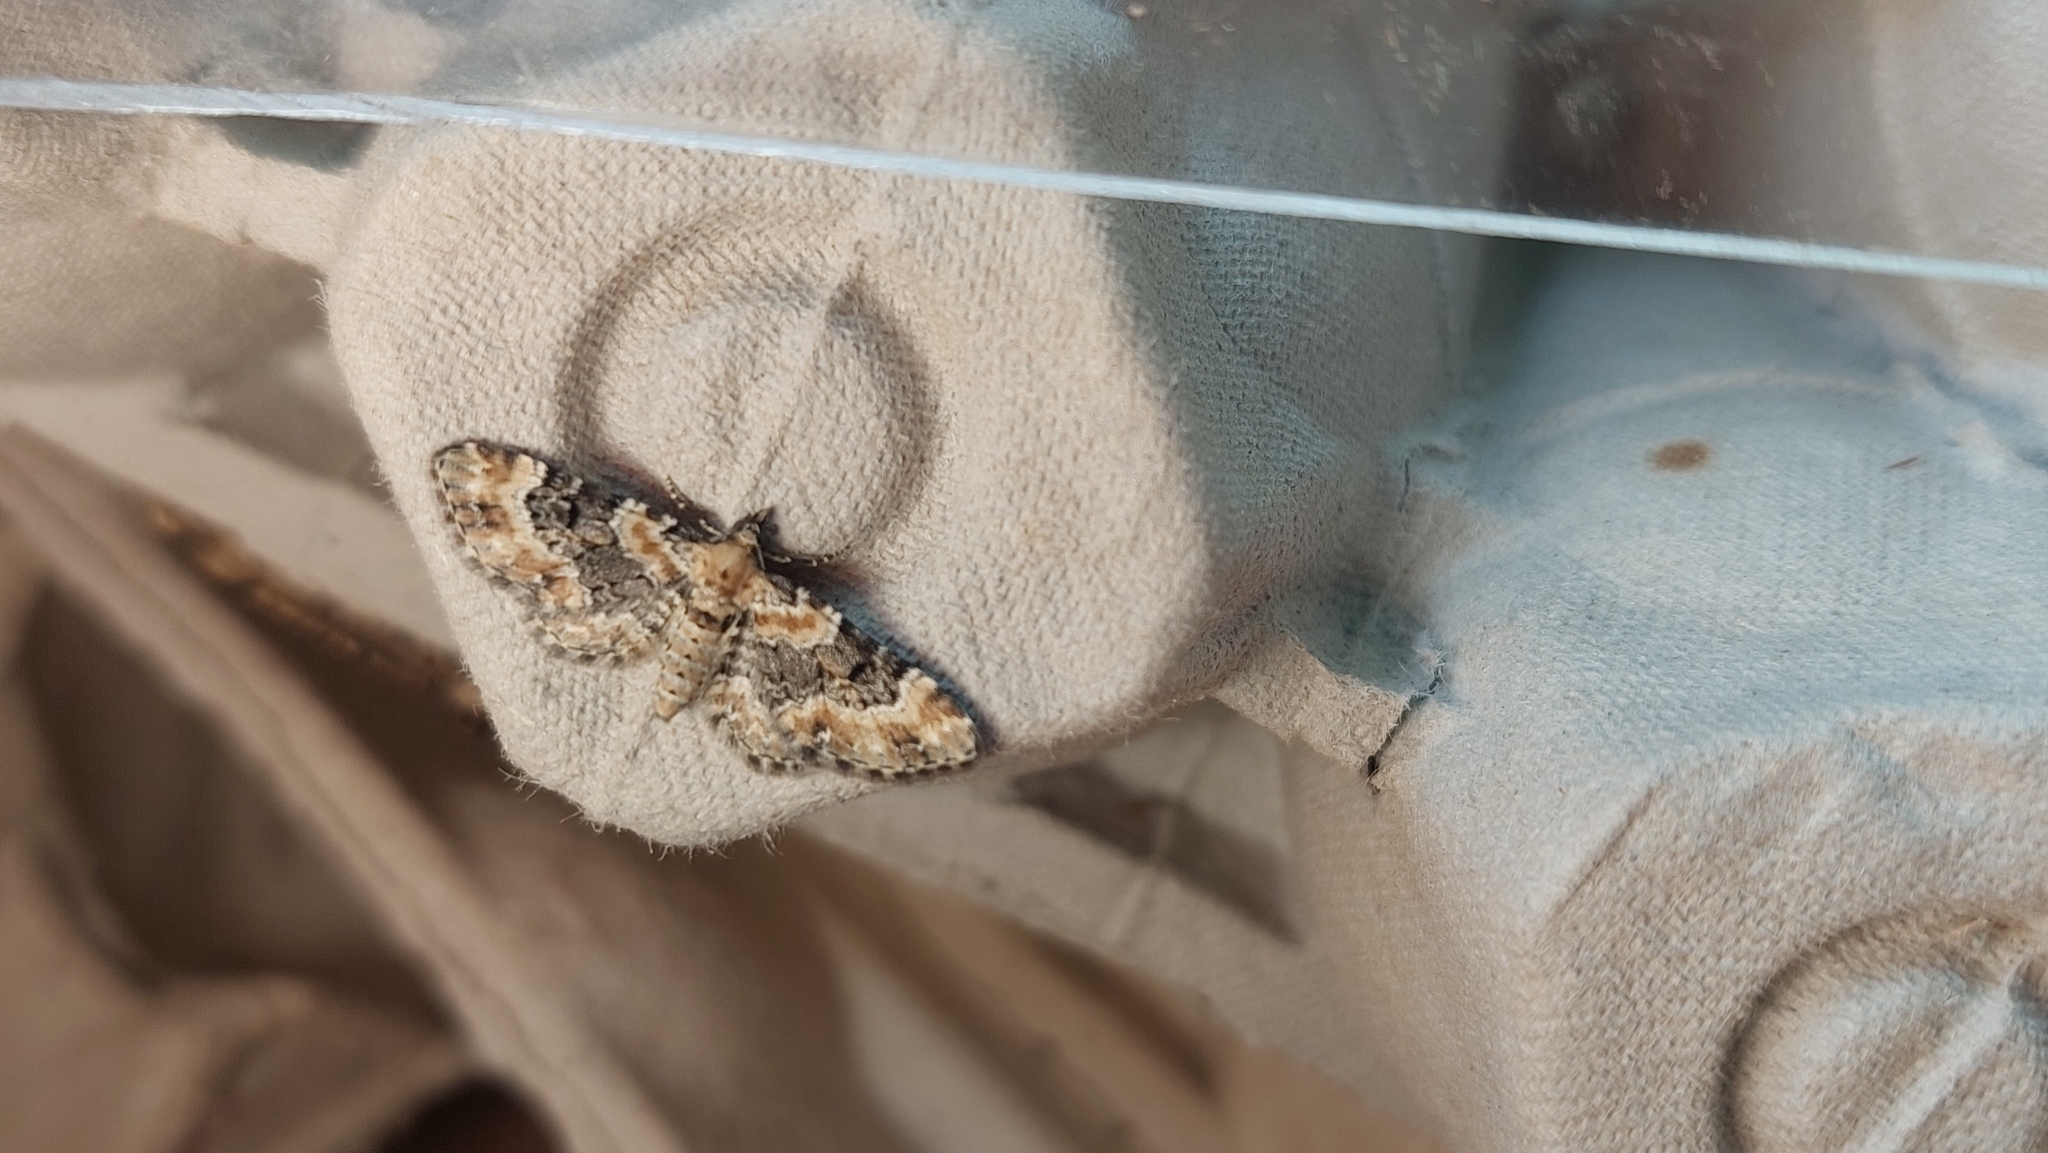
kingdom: Animalia
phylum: Arthropoda
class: Insecta
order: Lepidoptera
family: Geometridae
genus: Eupithecia
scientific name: Eupithecia pulchellata
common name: Foxglove pug
